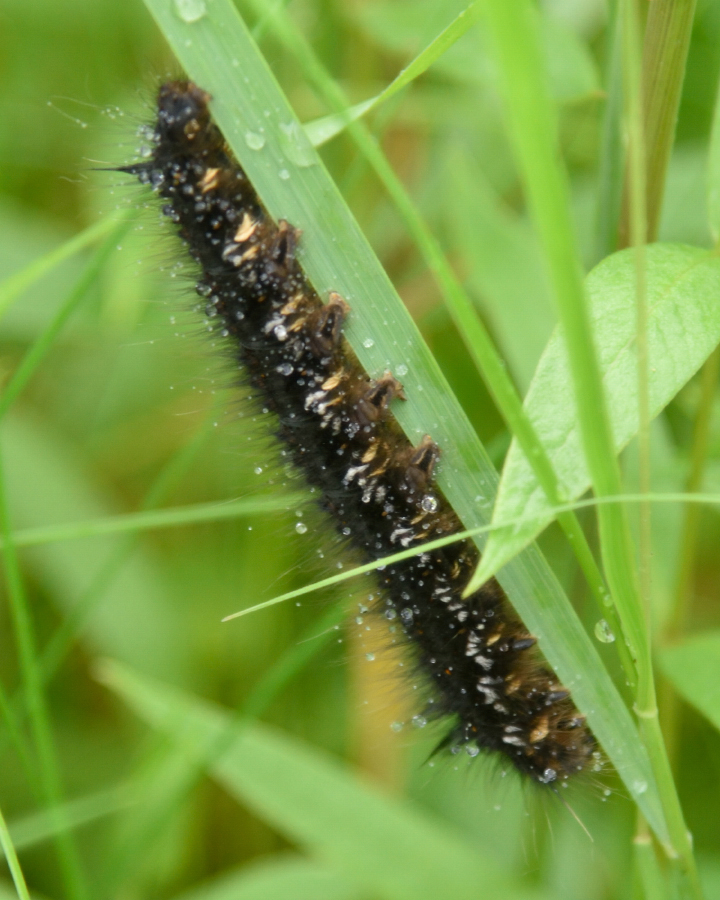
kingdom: Animalia
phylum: Arthropoda
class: Insecta
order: Lepidoptera
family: Lasiocampidae
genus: Euthrix
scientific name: Euthrix potatoria
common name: Drinker
